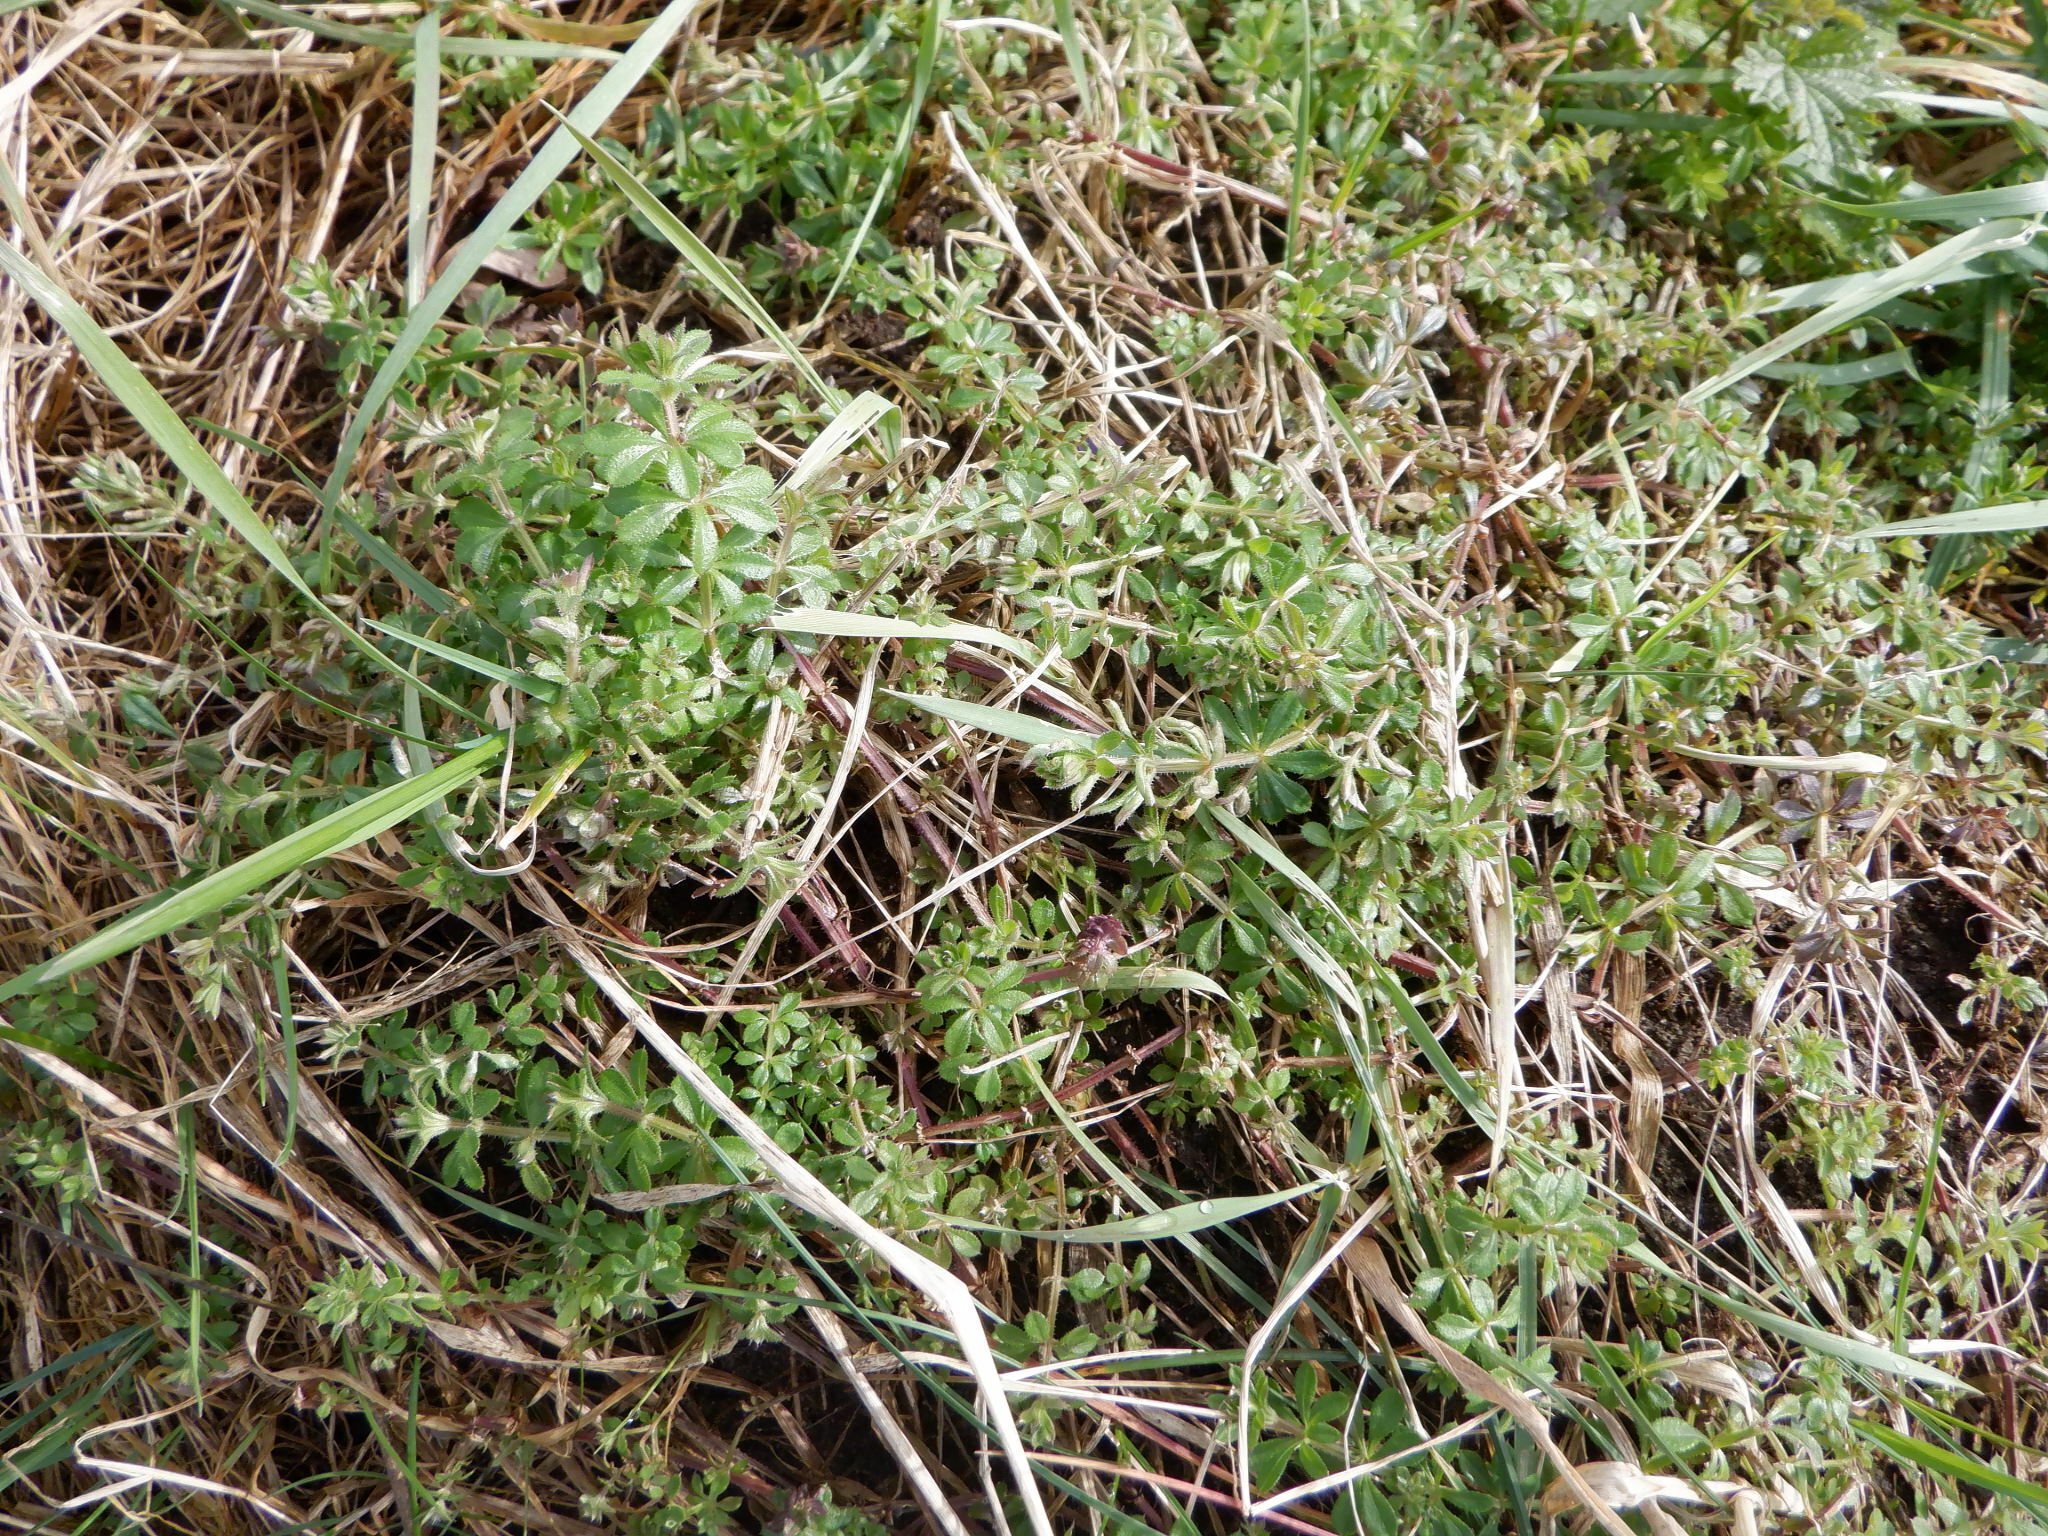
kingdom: Plantae
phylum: Tracheophyta
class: Magnoliopsida
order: Gentianales
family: Rubiaceae
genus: Galium
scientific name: Galium aparine
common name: Cleavers
